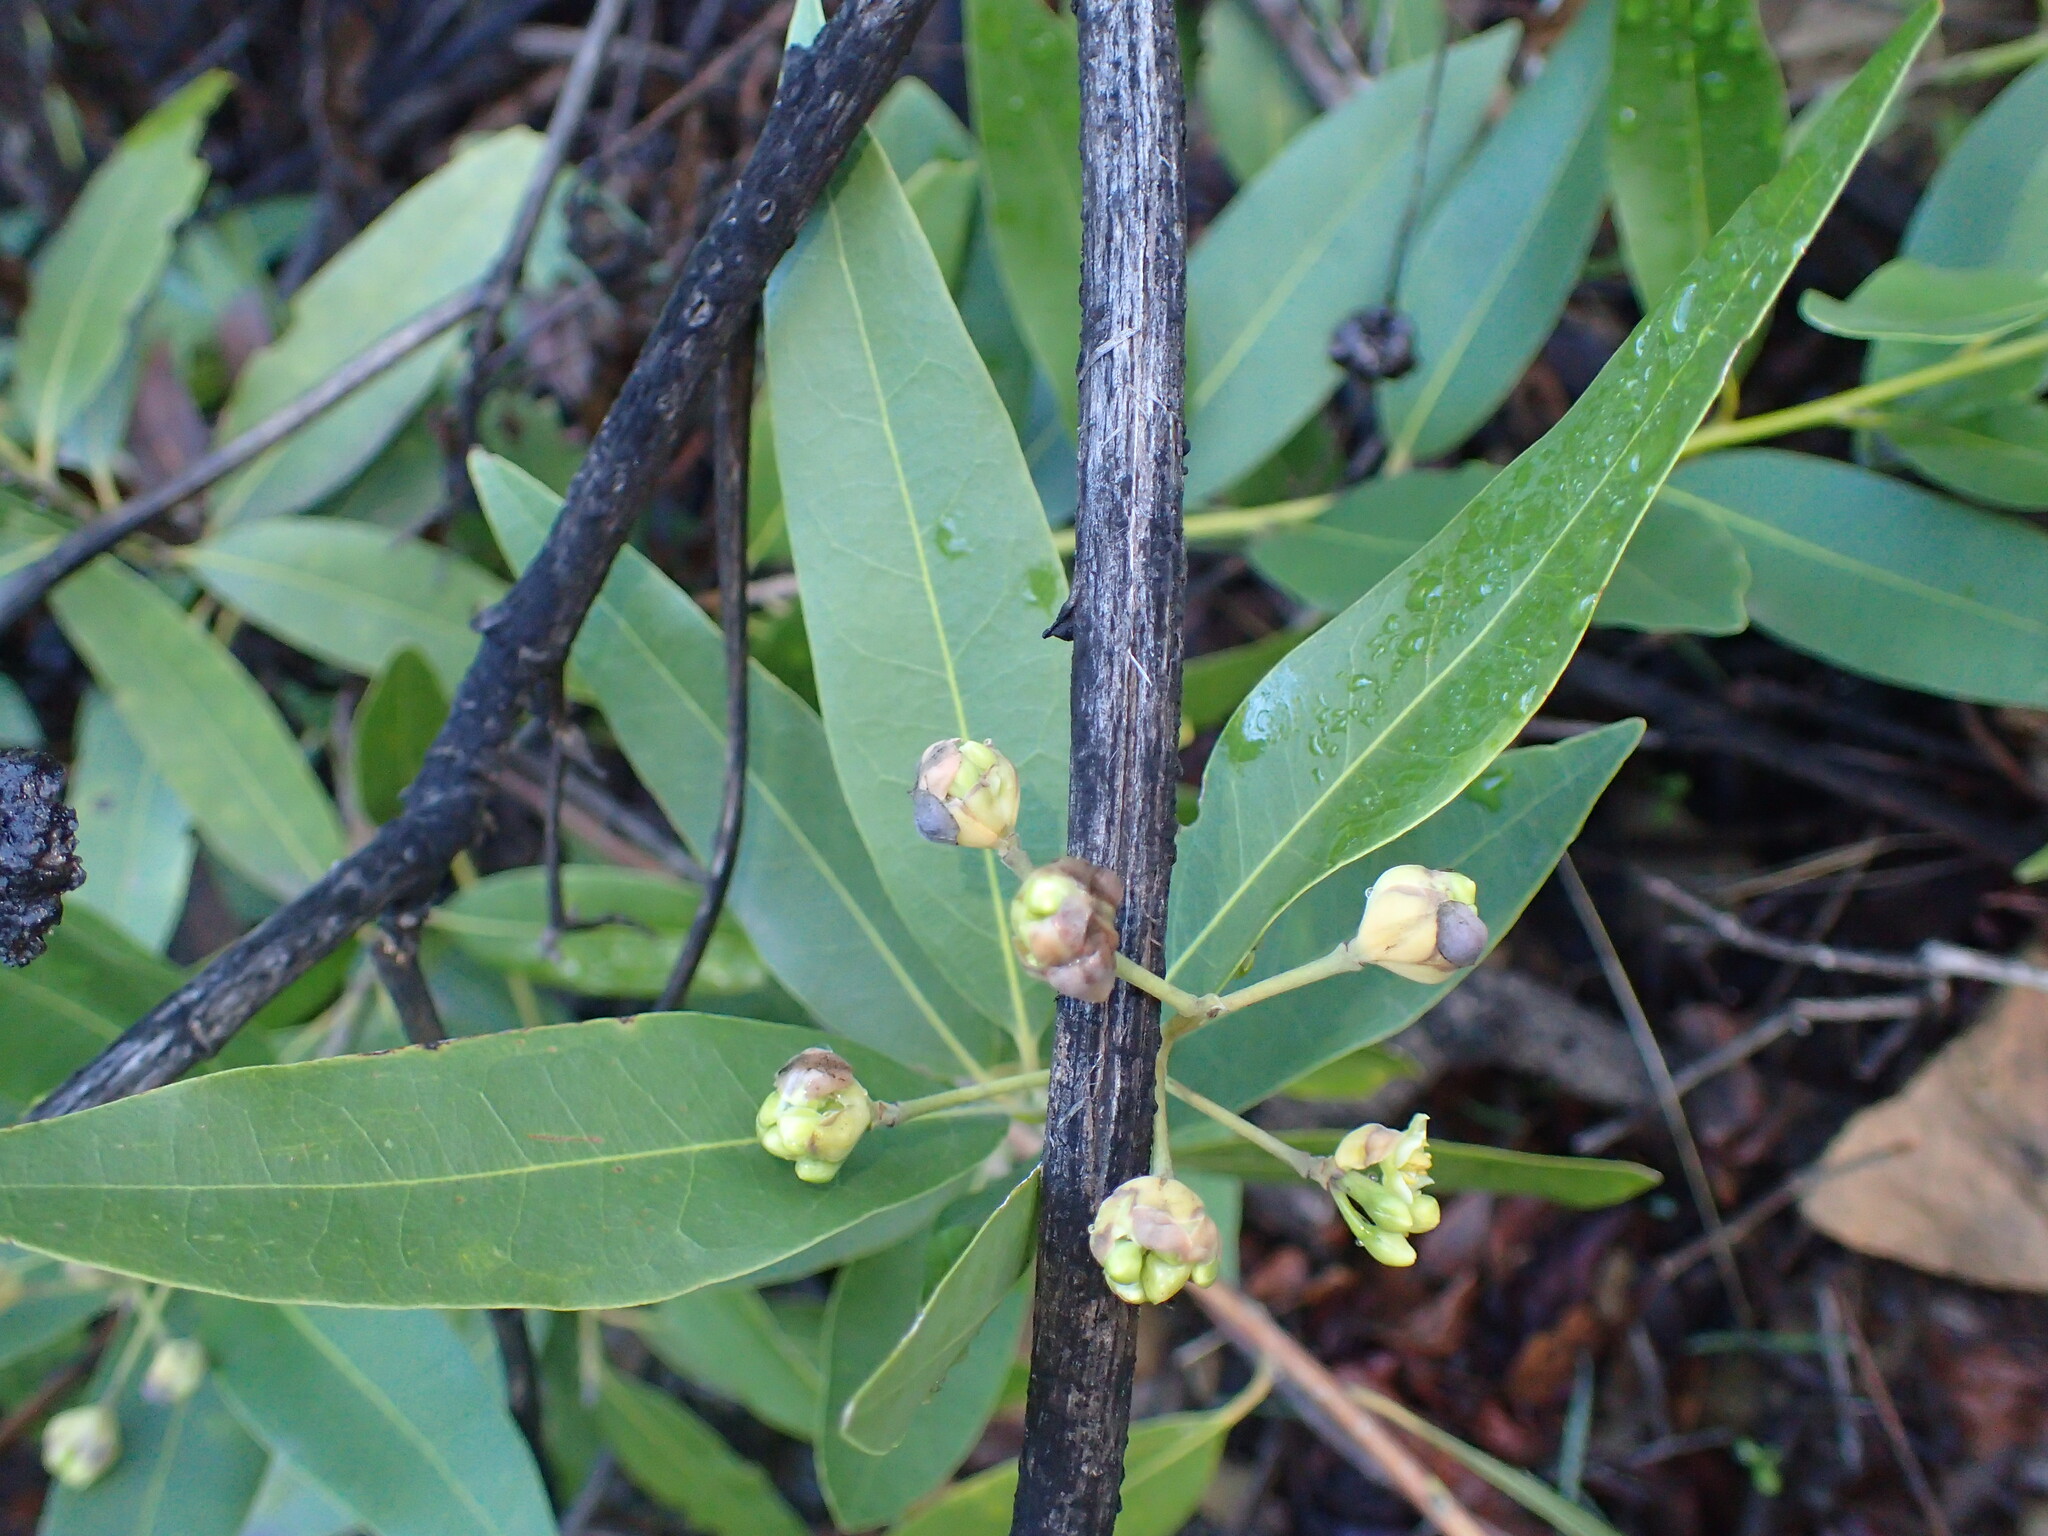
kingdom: Plantae
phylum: Tracheophyta
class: Magnoliopsida
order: Laurales
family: Lauraceae
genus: Umbellularia
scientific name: Umbellularia californica
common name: California bay
